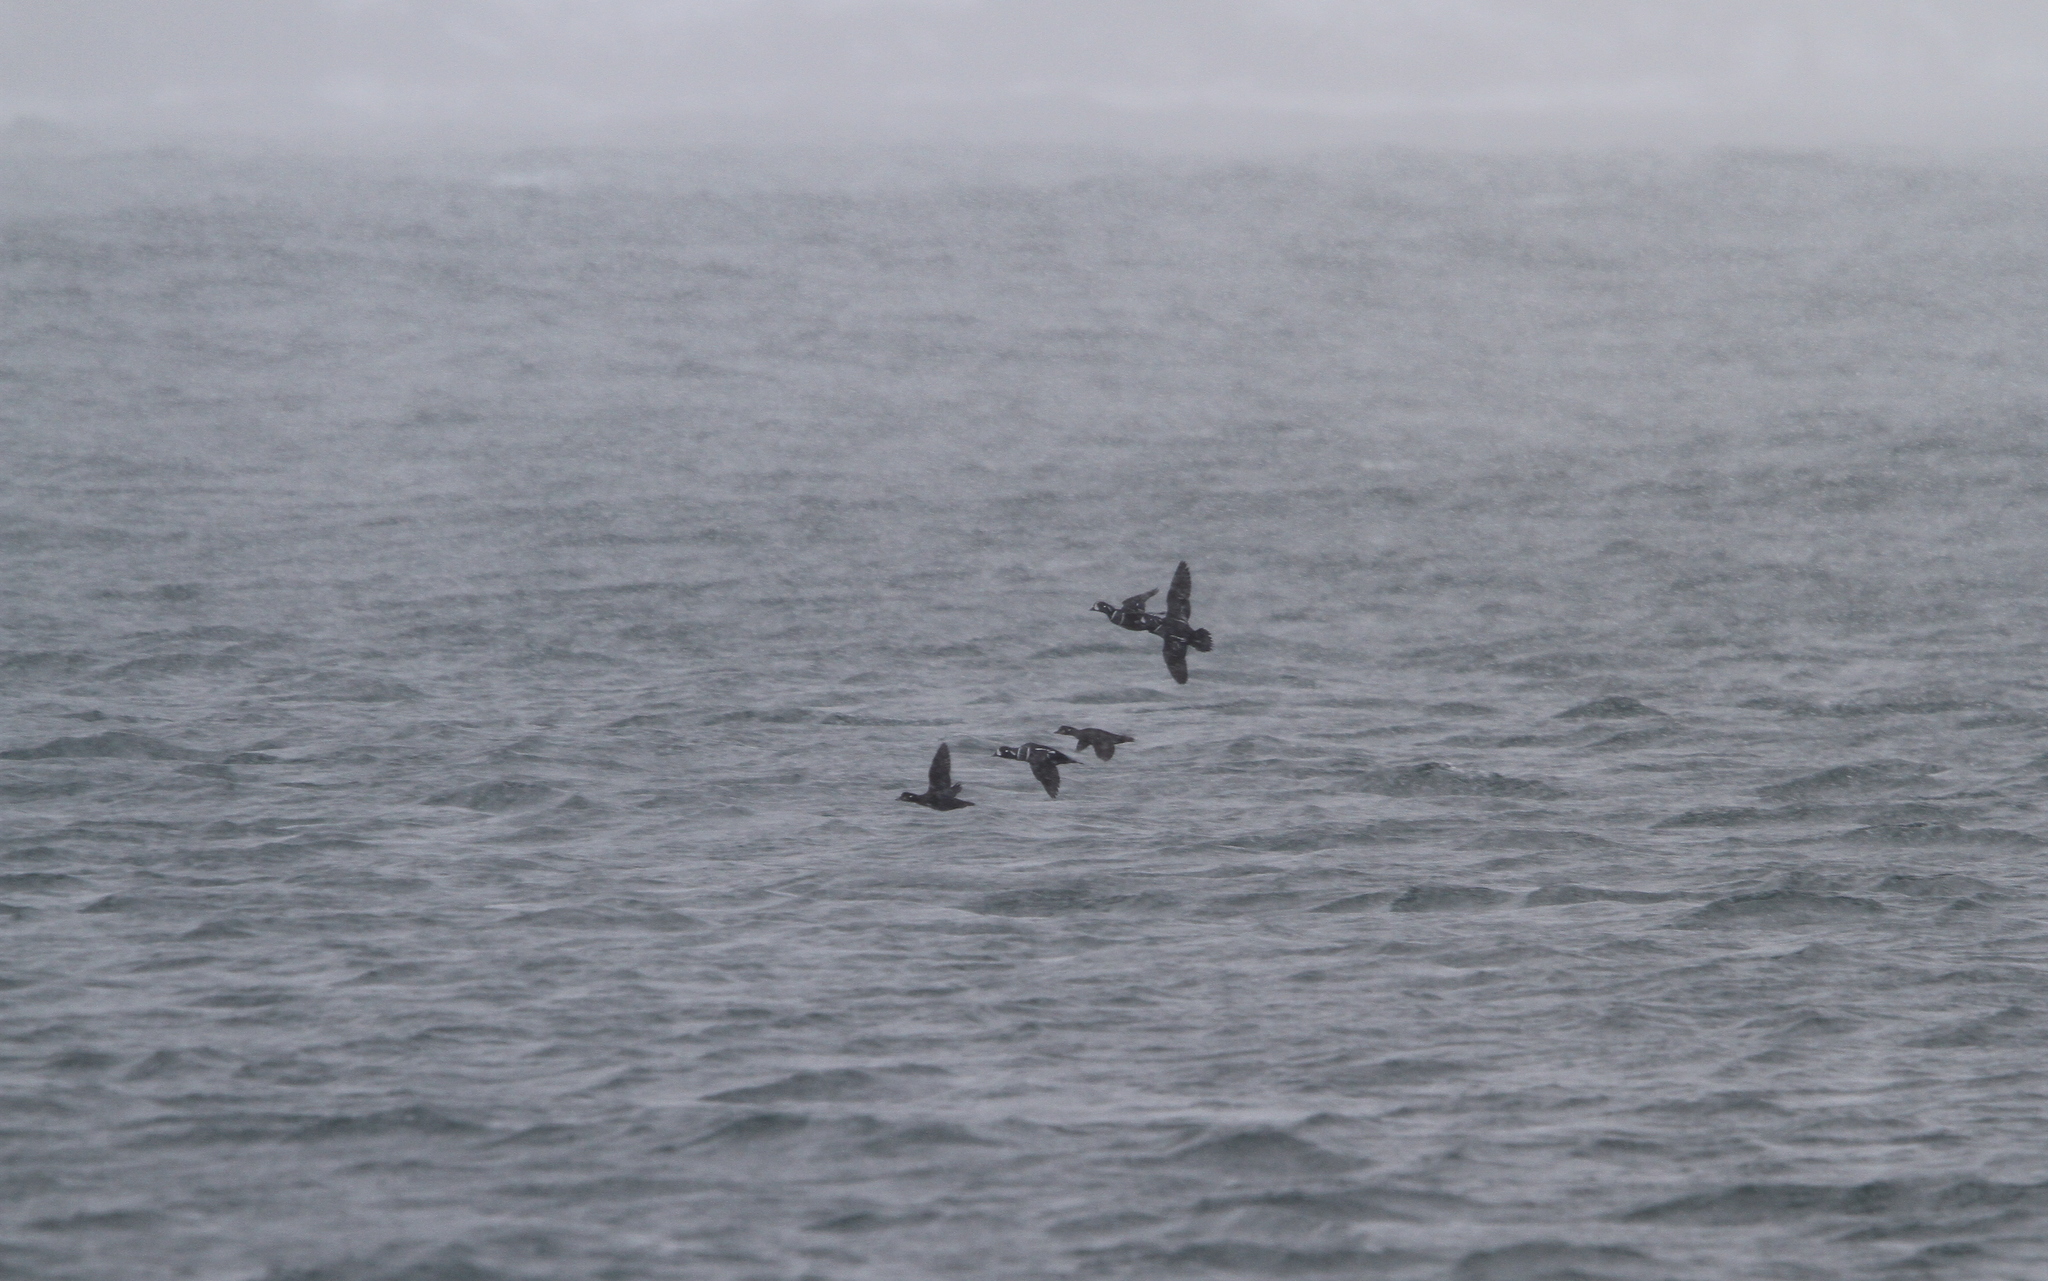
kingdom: Animalia
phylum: Chordata
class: Aves
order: Anseriformes
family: Anatidae
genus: Histrionicus
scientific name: Histrionicus histrionicus
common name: Harlequin duck
